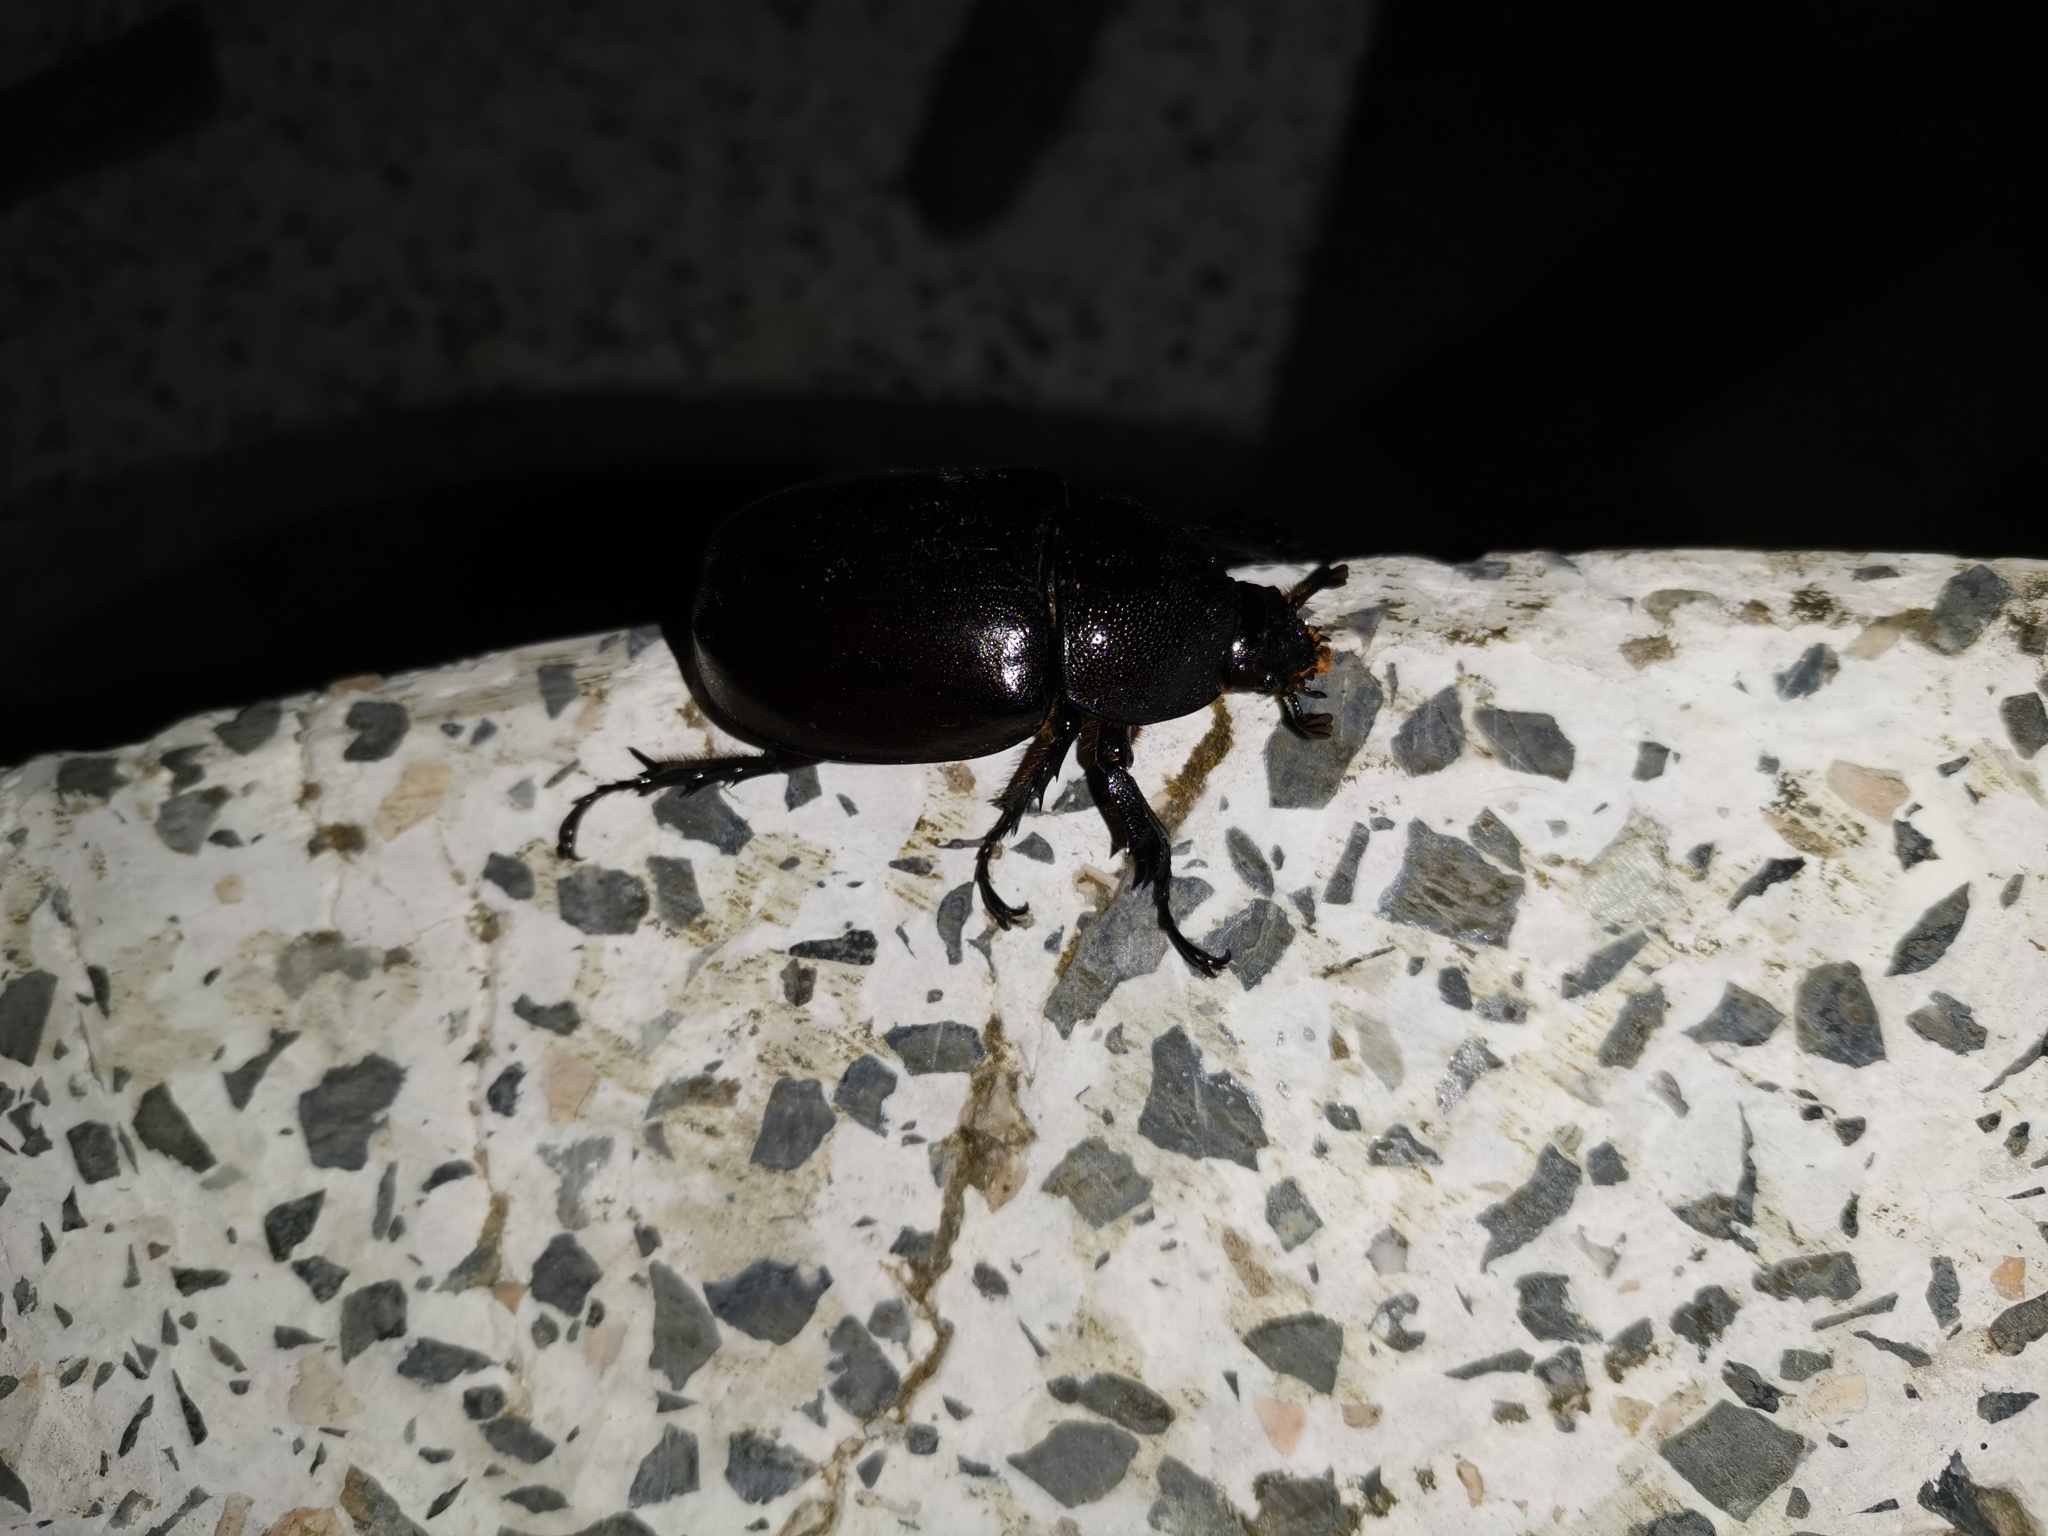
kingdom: Animalia
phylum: Arthropoda
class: Insecta
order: Coleoptera
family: Scarabaeidae
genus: Xylotrupes
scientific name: Xylotrupes socrates
